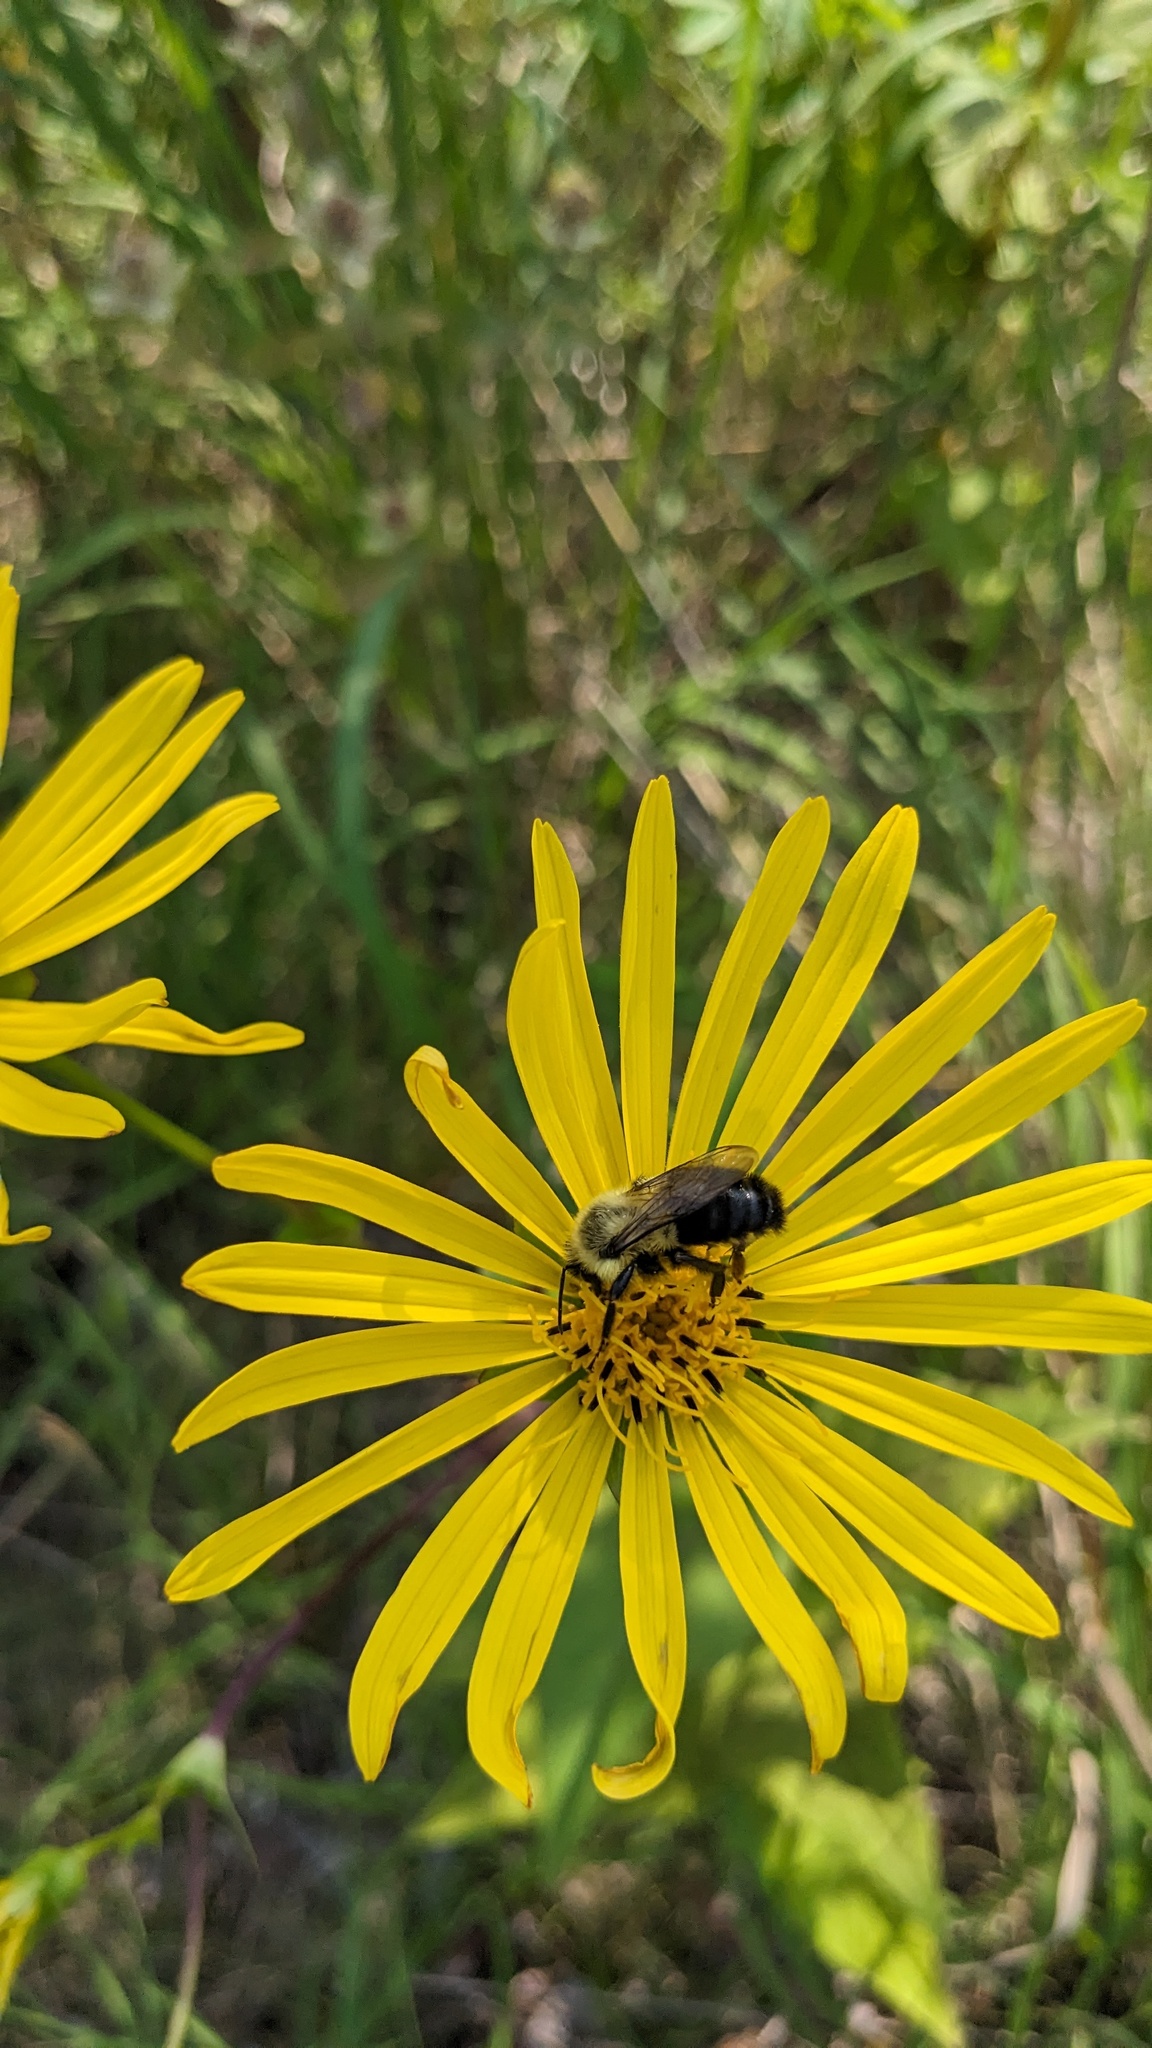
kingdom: Animalia
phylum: Arthropoda
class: Insecta
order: Hymenoptera
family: Apidae
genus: Bombus
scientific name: Bombus impatiens
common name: Common eastern bumble bee
